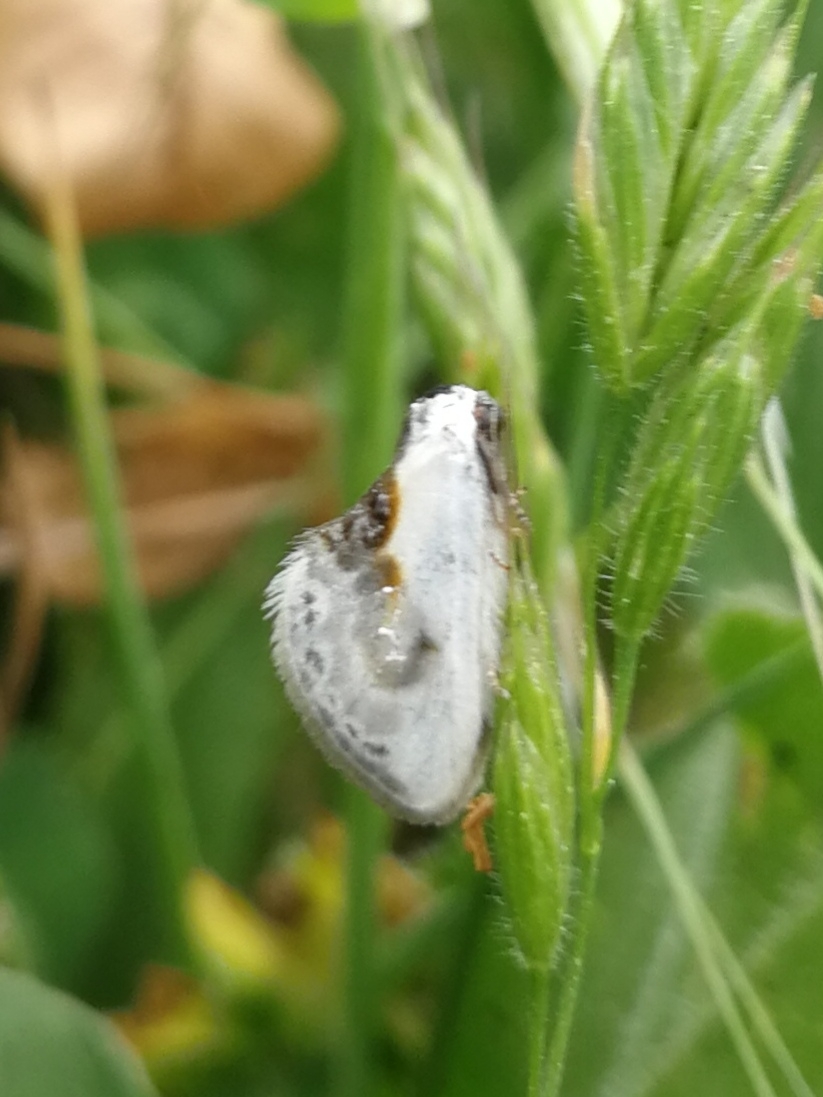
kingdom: Animalia
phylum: Arthropoda
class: Insecta
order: Lepidoptera
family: Drepanidae
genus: Cilix
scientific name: Cilix glaucata
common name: Chinese character
